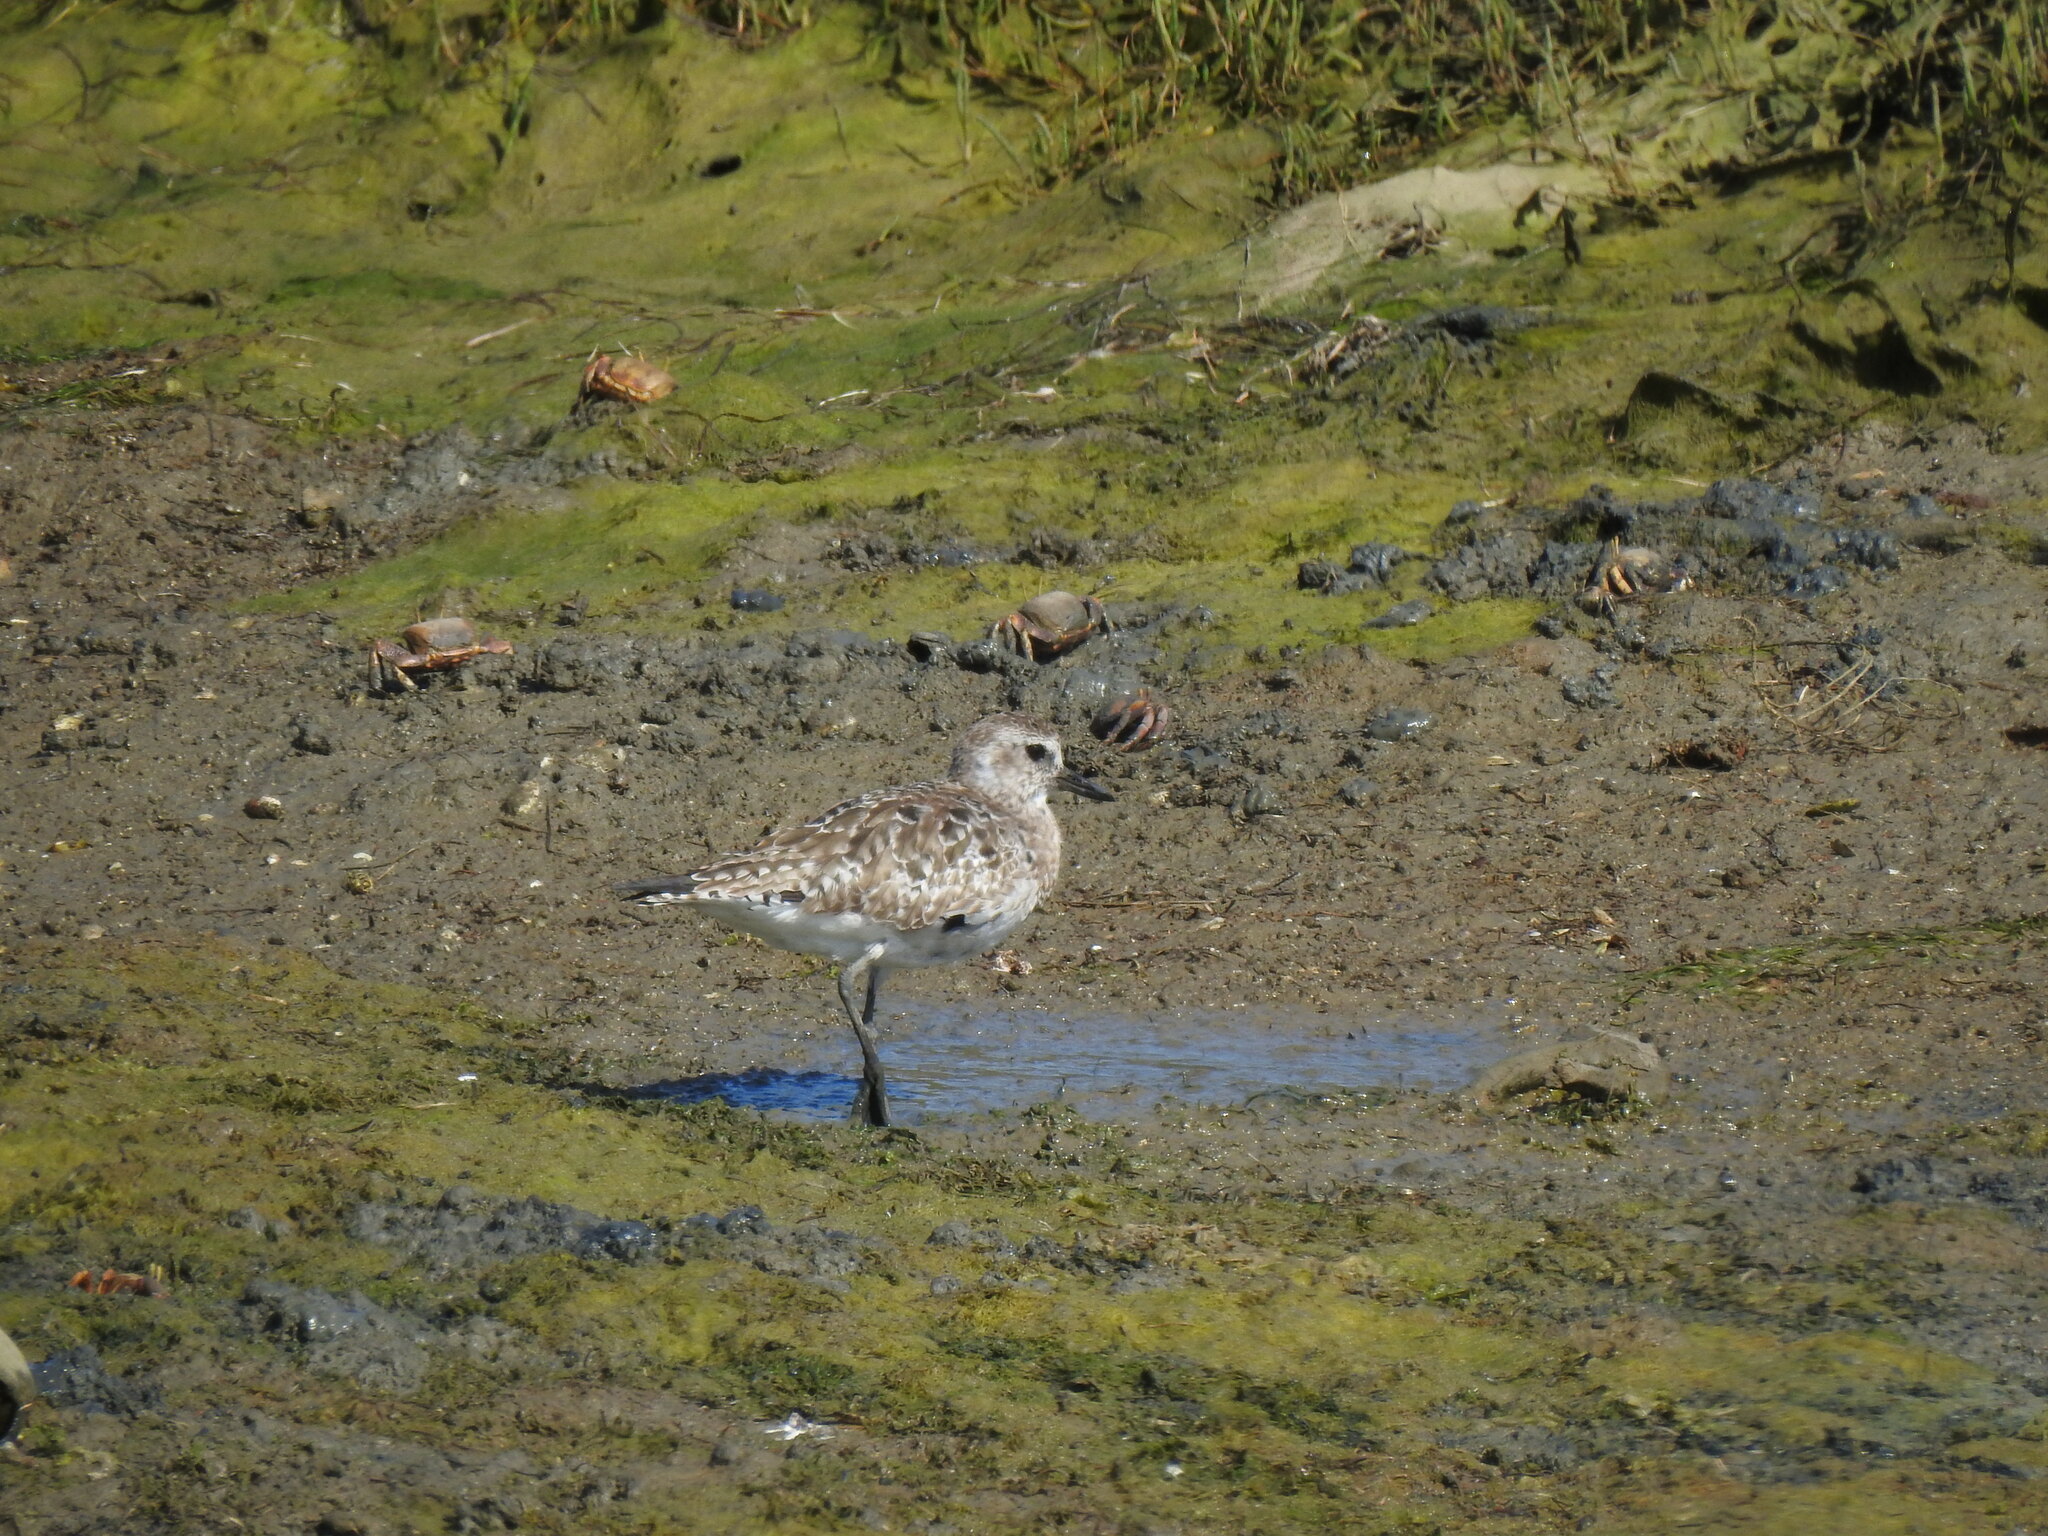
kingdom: Animalia
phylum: Chordata
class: Aves
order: Charadriiformes
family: Charadriidae
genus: Pluvialis
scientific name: Pluvialis squatarola
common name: Grey plover
